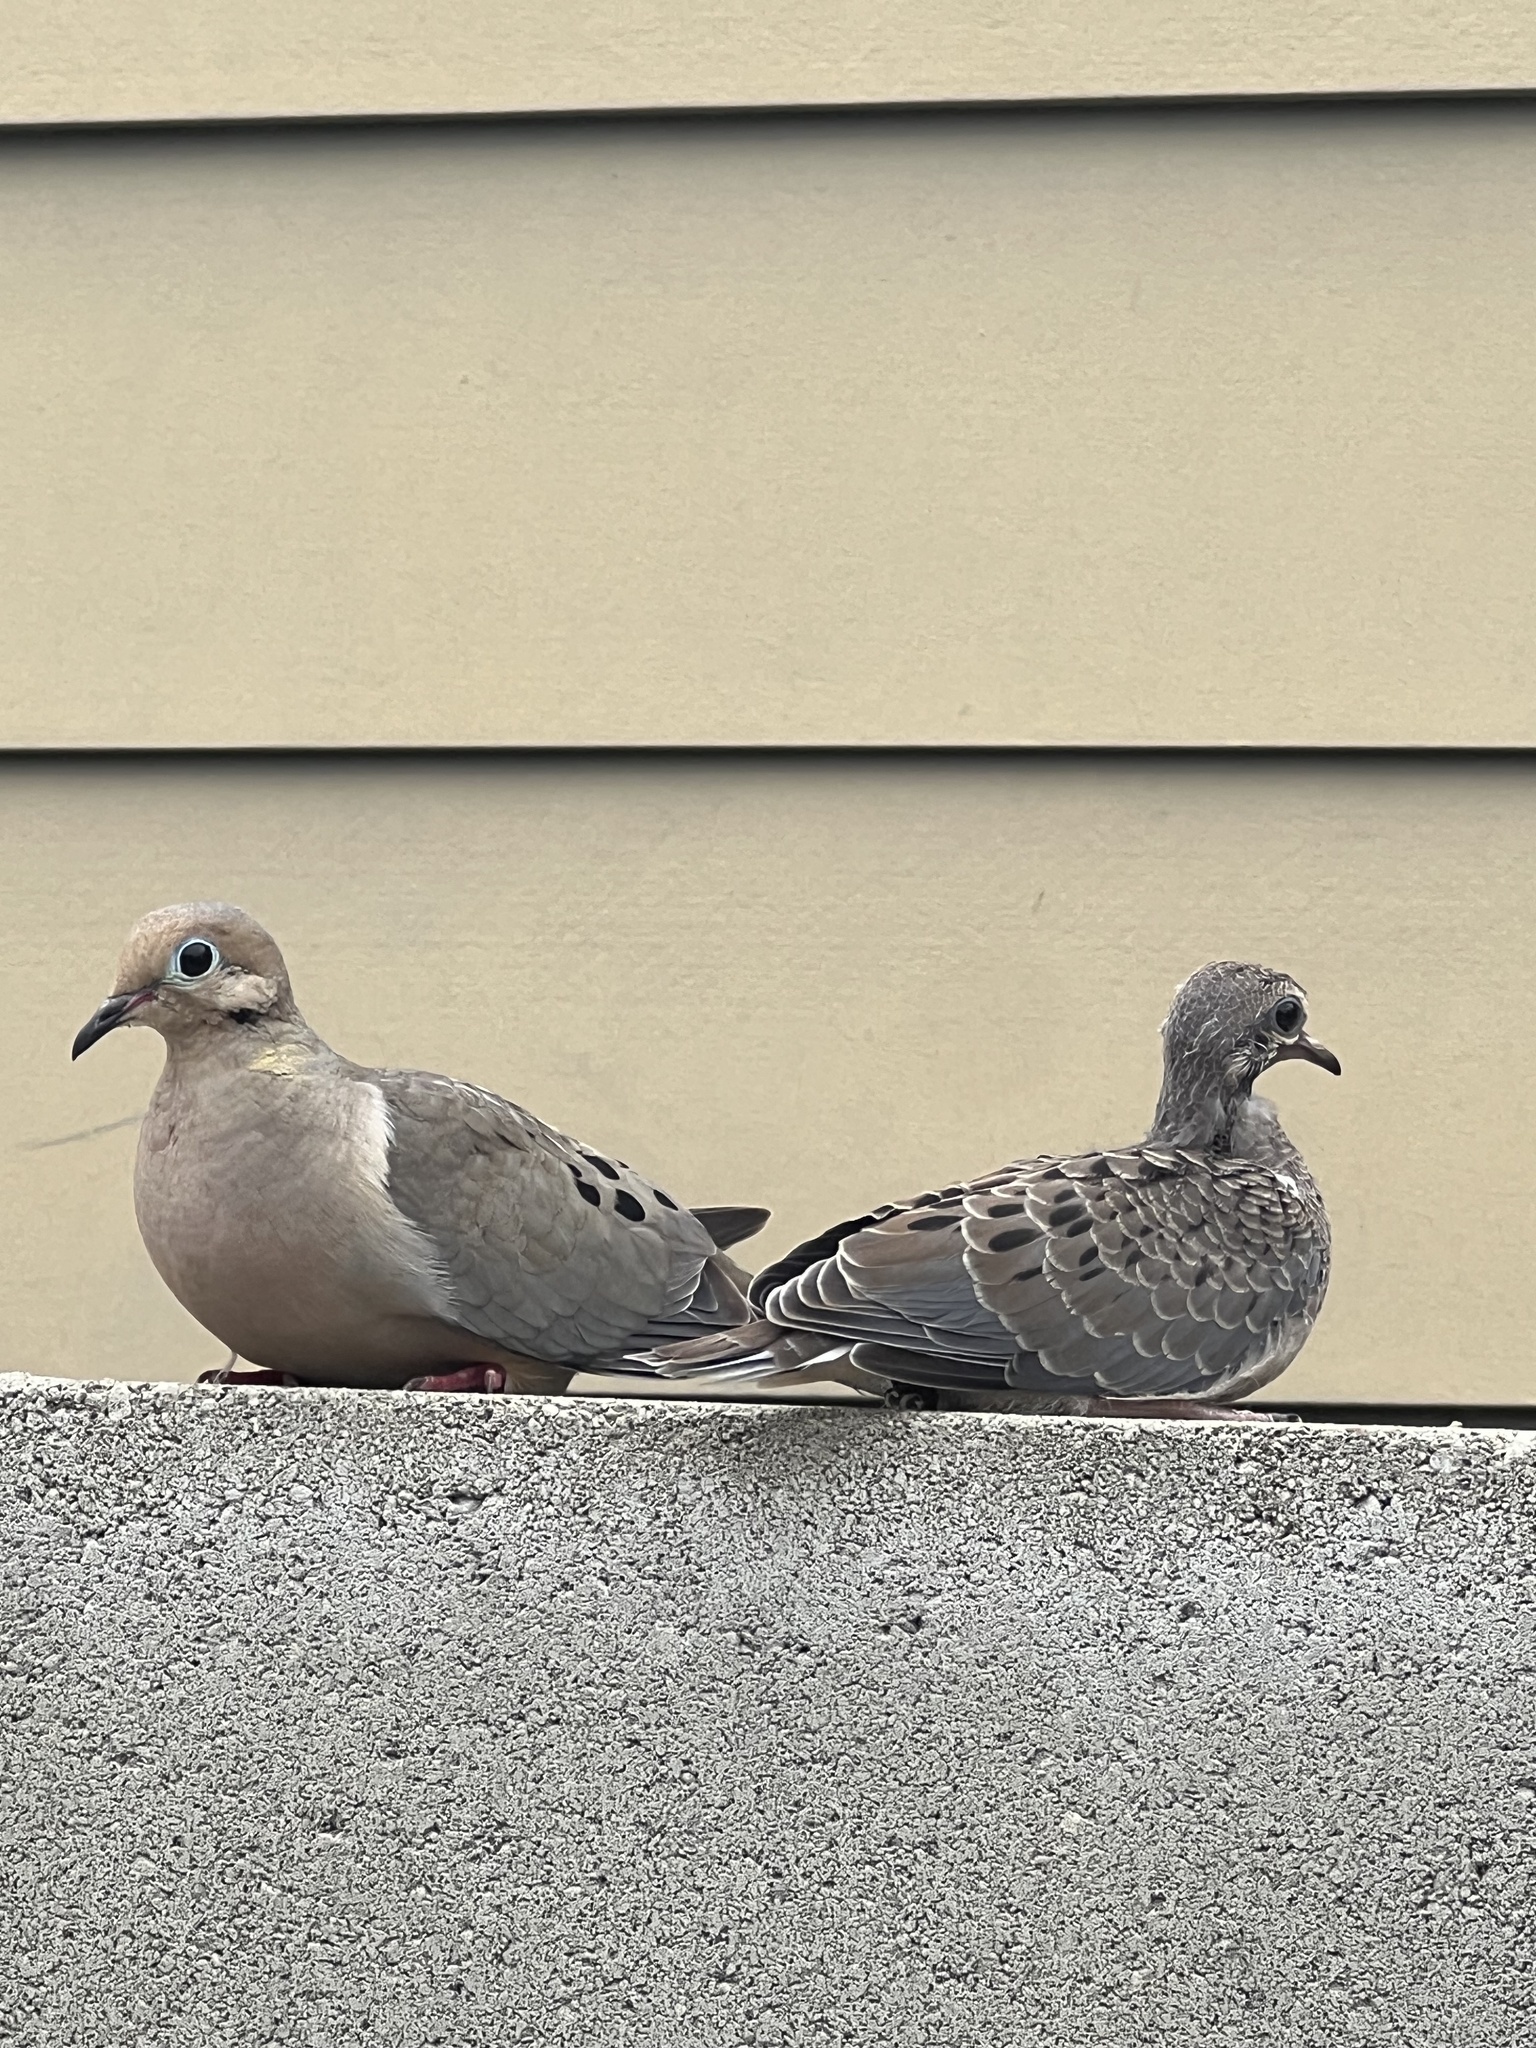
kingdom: Animalia
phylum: Chordata
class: Aves
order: Columbiformes
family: Columbidae
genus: Zenaida
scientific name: Zenaida macroura
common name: Mourning dove
